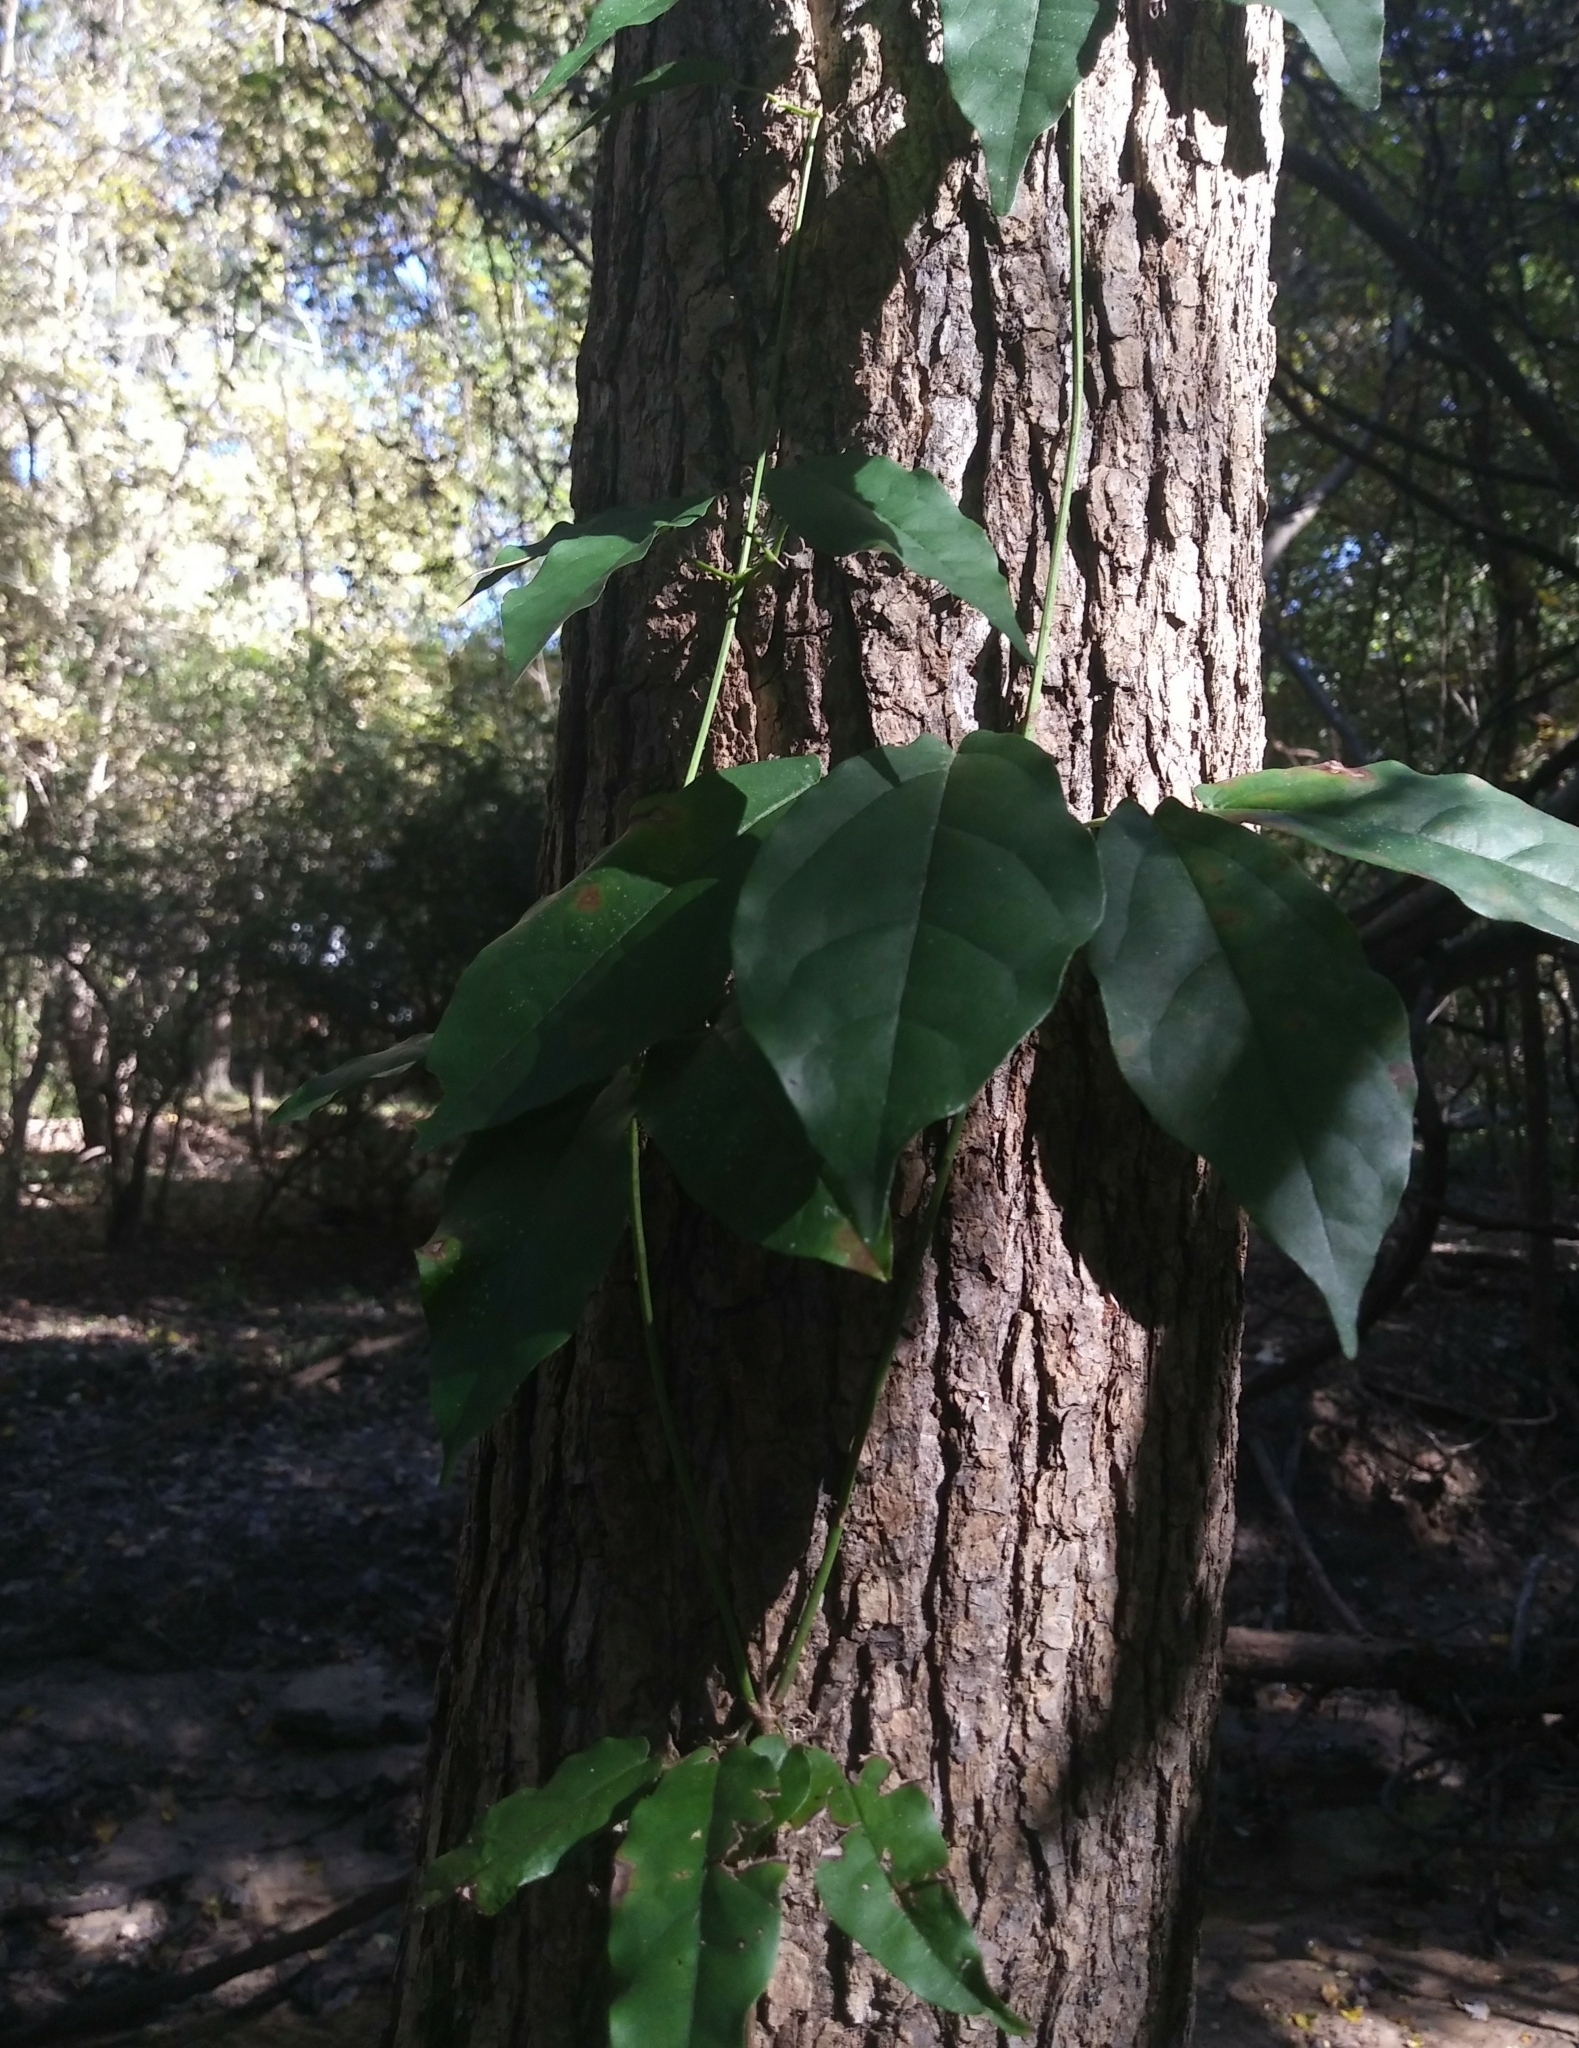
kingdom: Plantae
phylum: Tracheophyta
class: Magnoliopsida
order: Lamiales
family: Bignoniaceae
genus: Bignonia
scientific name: Bignonia capreolata
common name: Crossvine
